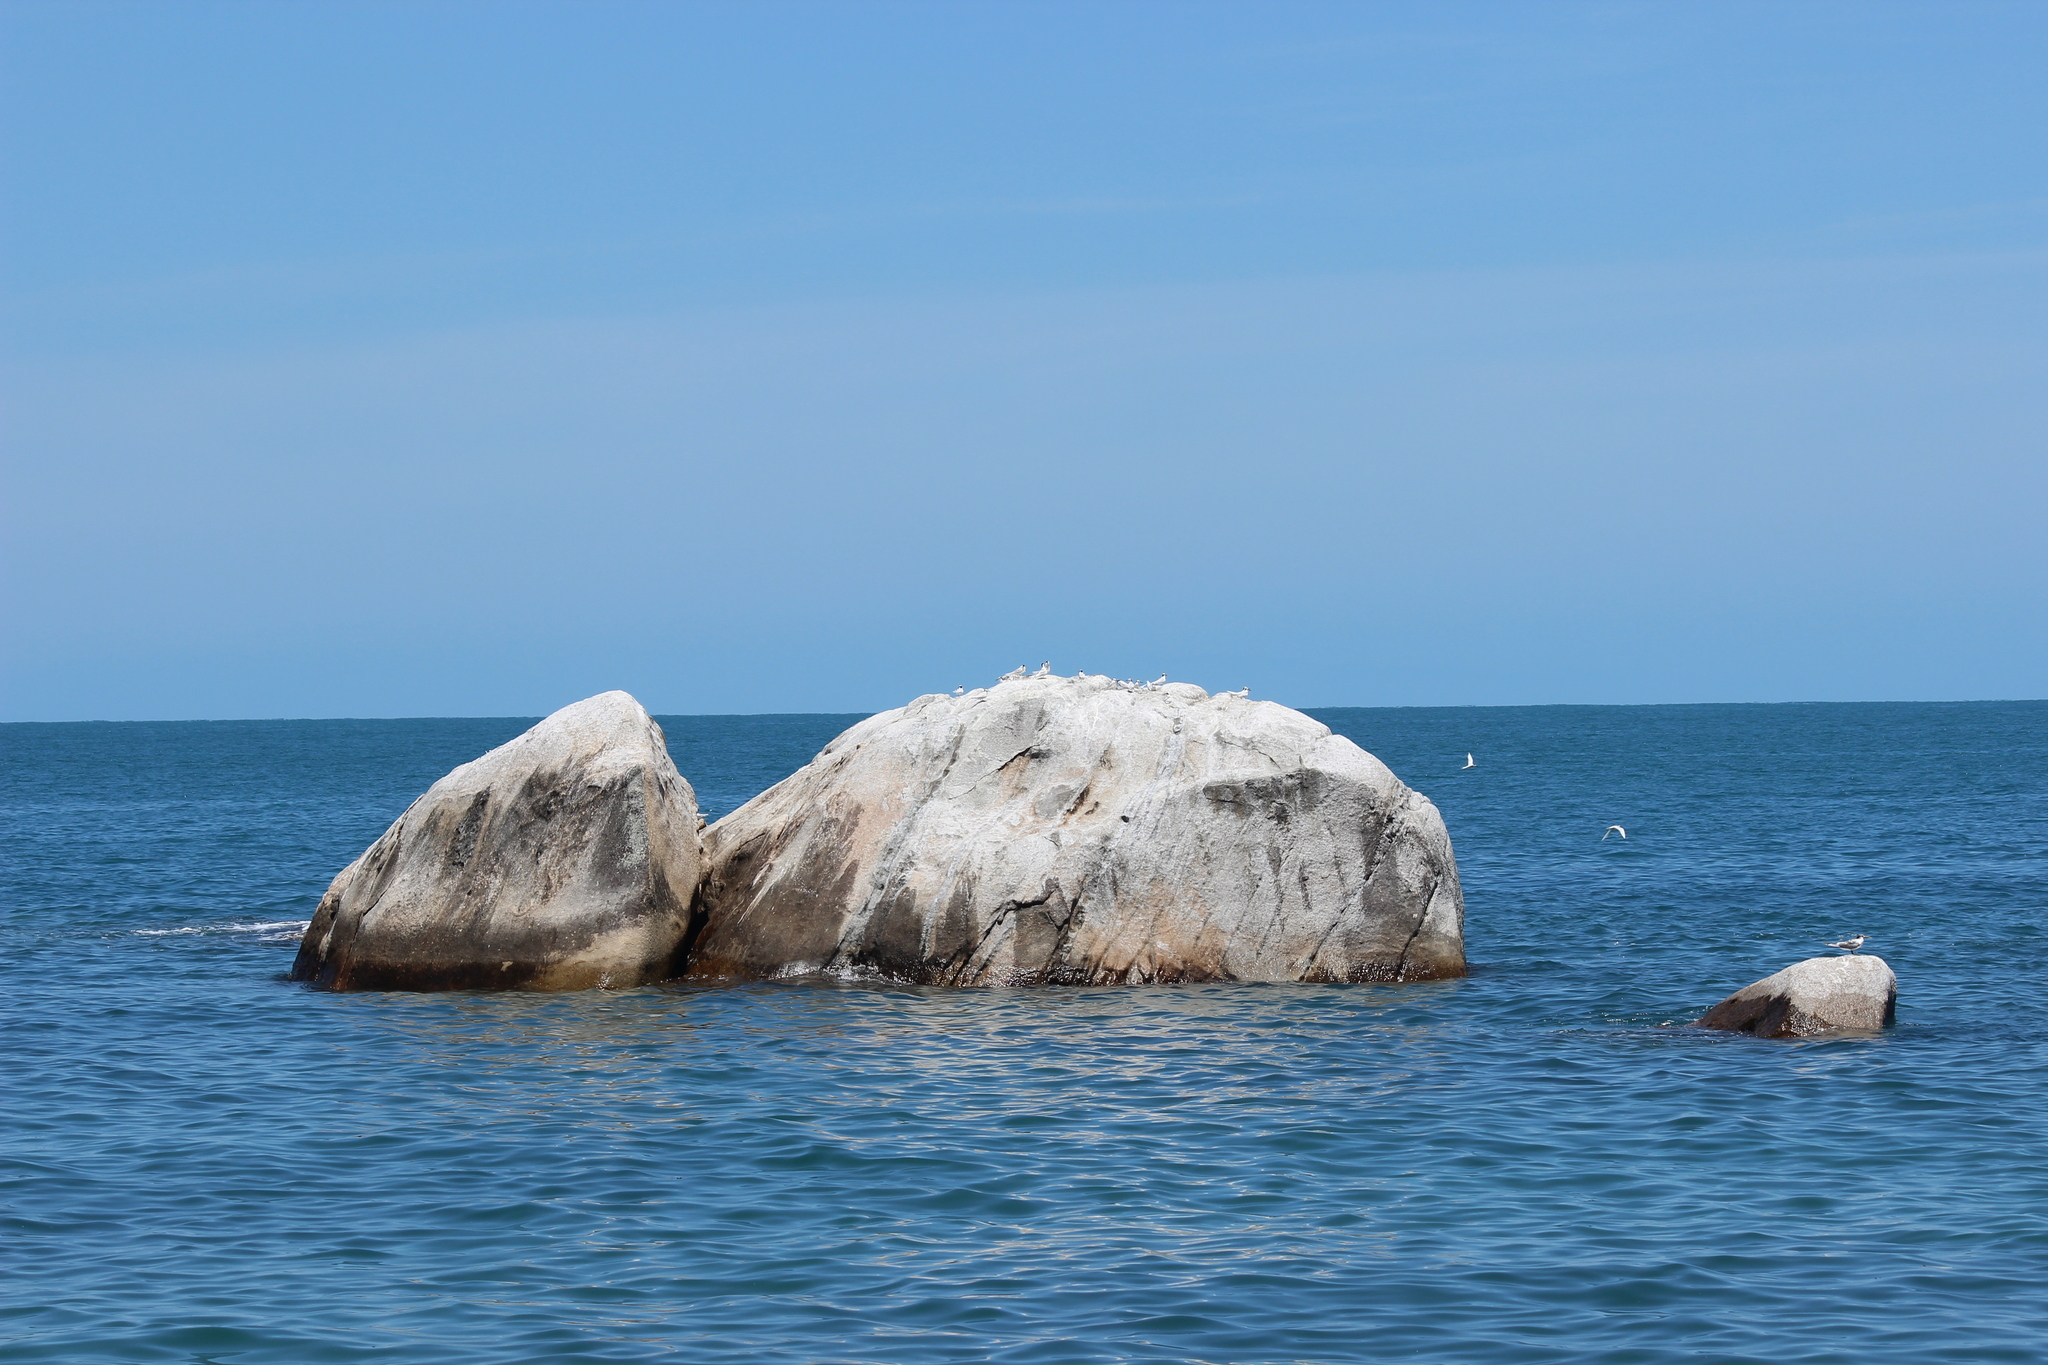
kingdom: Animalia
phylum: Chordata
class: Aves
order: Charadriiformes
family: Laridae
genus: Sterna
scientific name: Sterna sumatrana
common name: Black-naped tern
